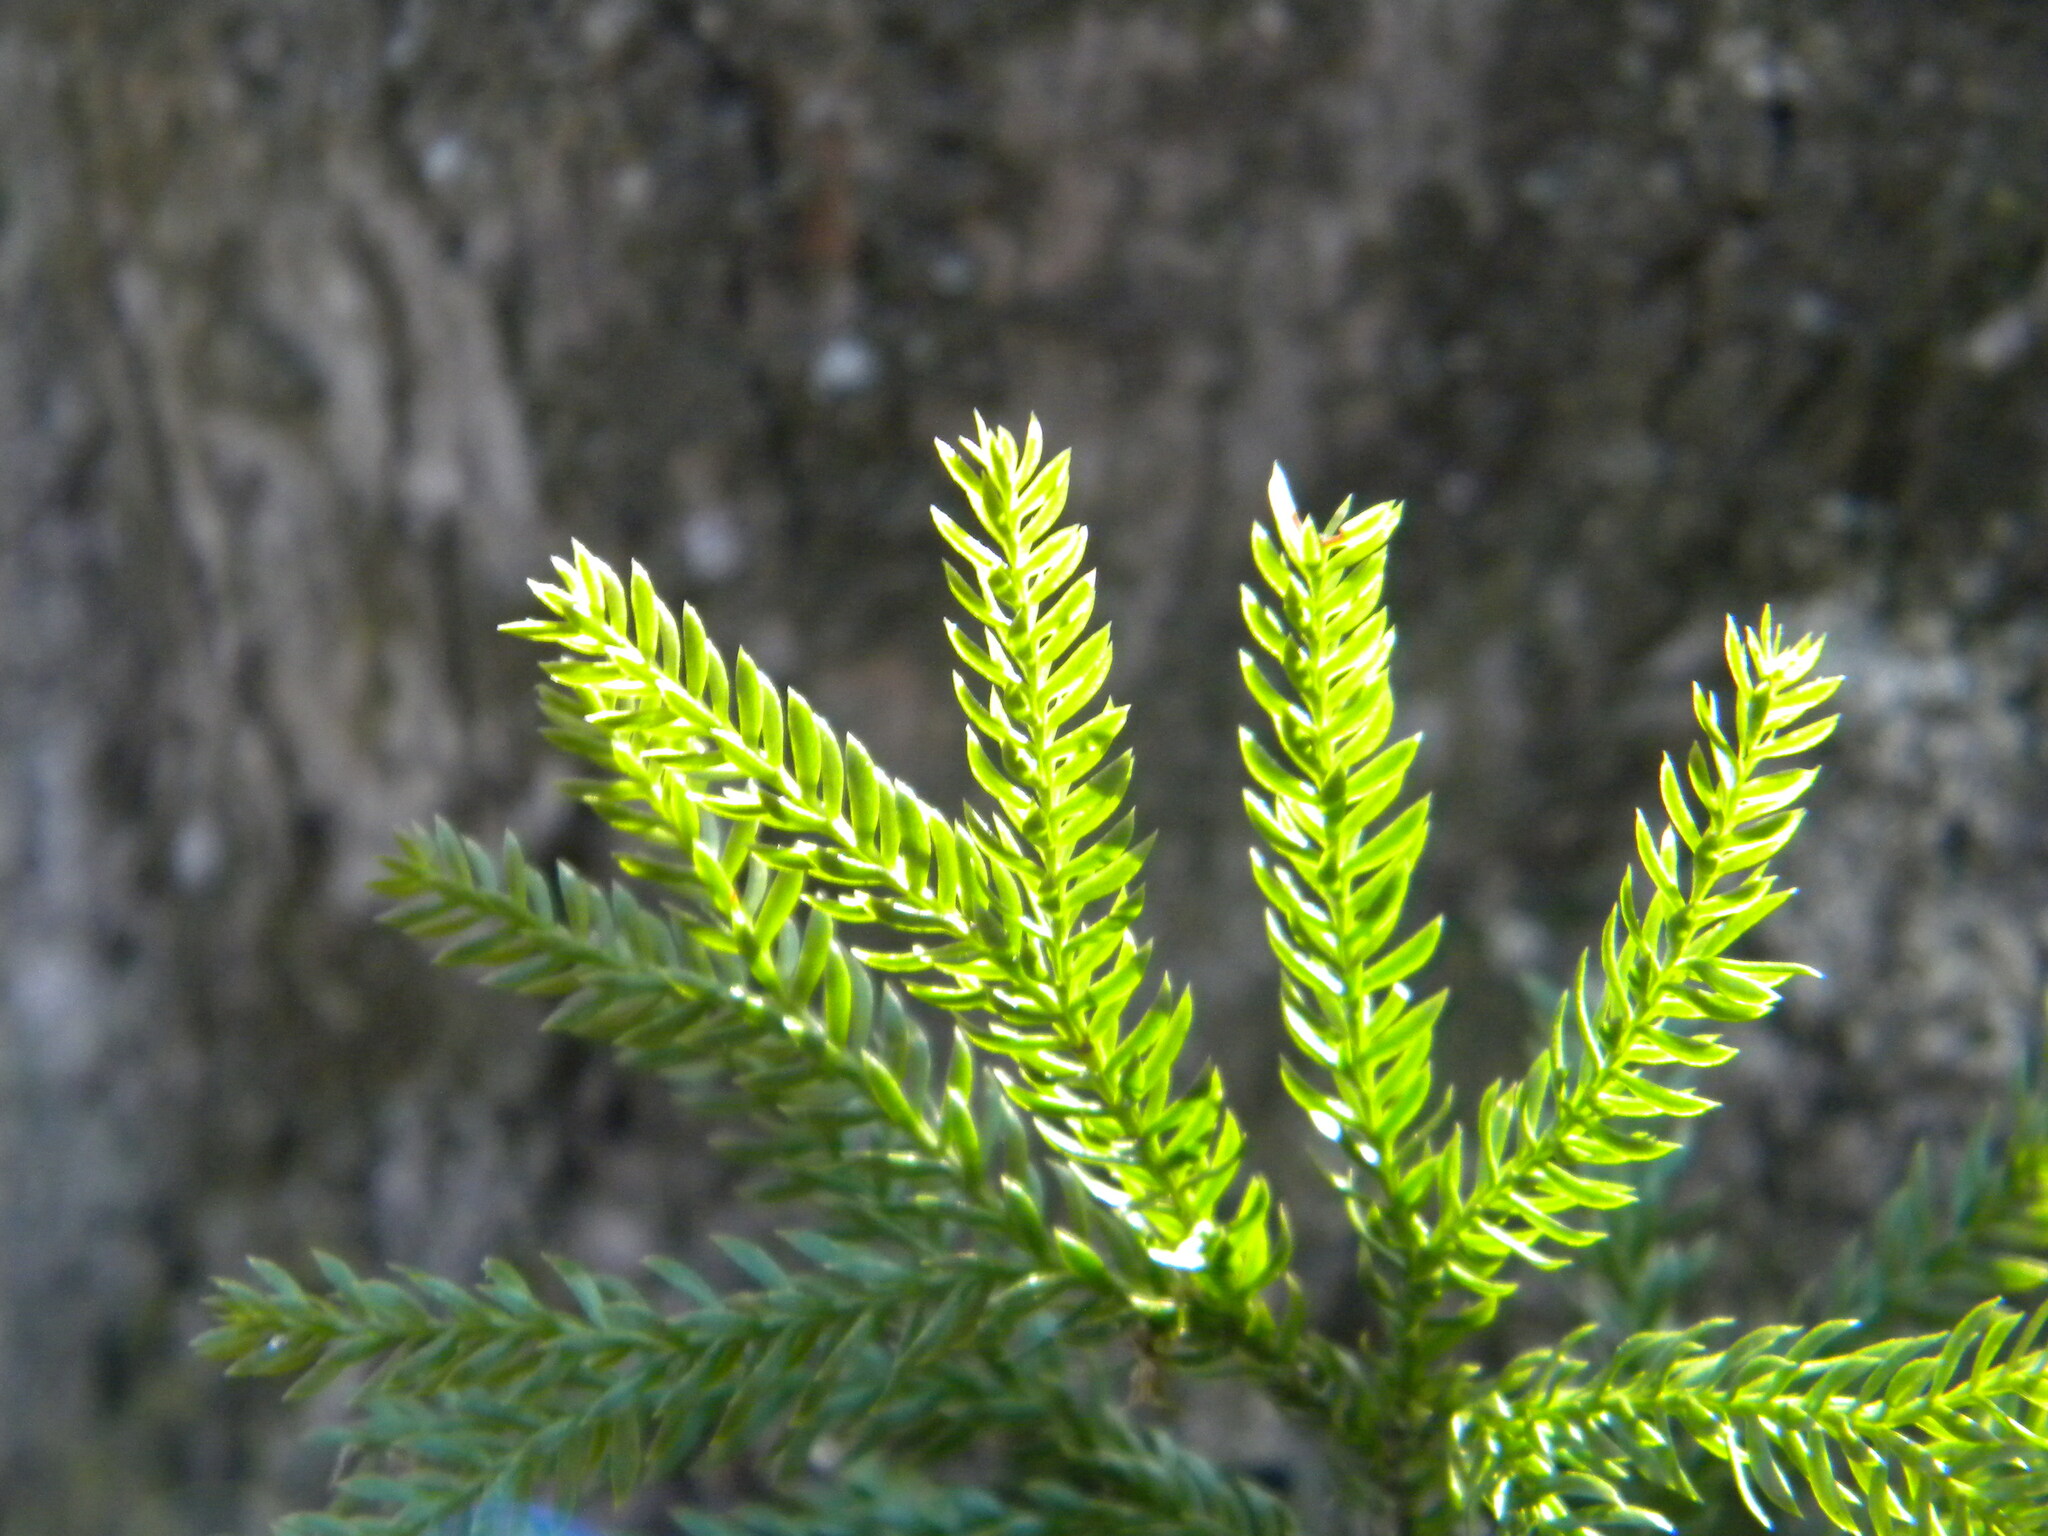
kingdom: Plantae
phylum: Tracheophyta
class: Lycopodiopsida
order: Lycopodiales
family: Lycopodiaceae
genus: Dendrolycopodium
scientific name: Dendrolycopodium obscurum
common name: Common ground-pine
